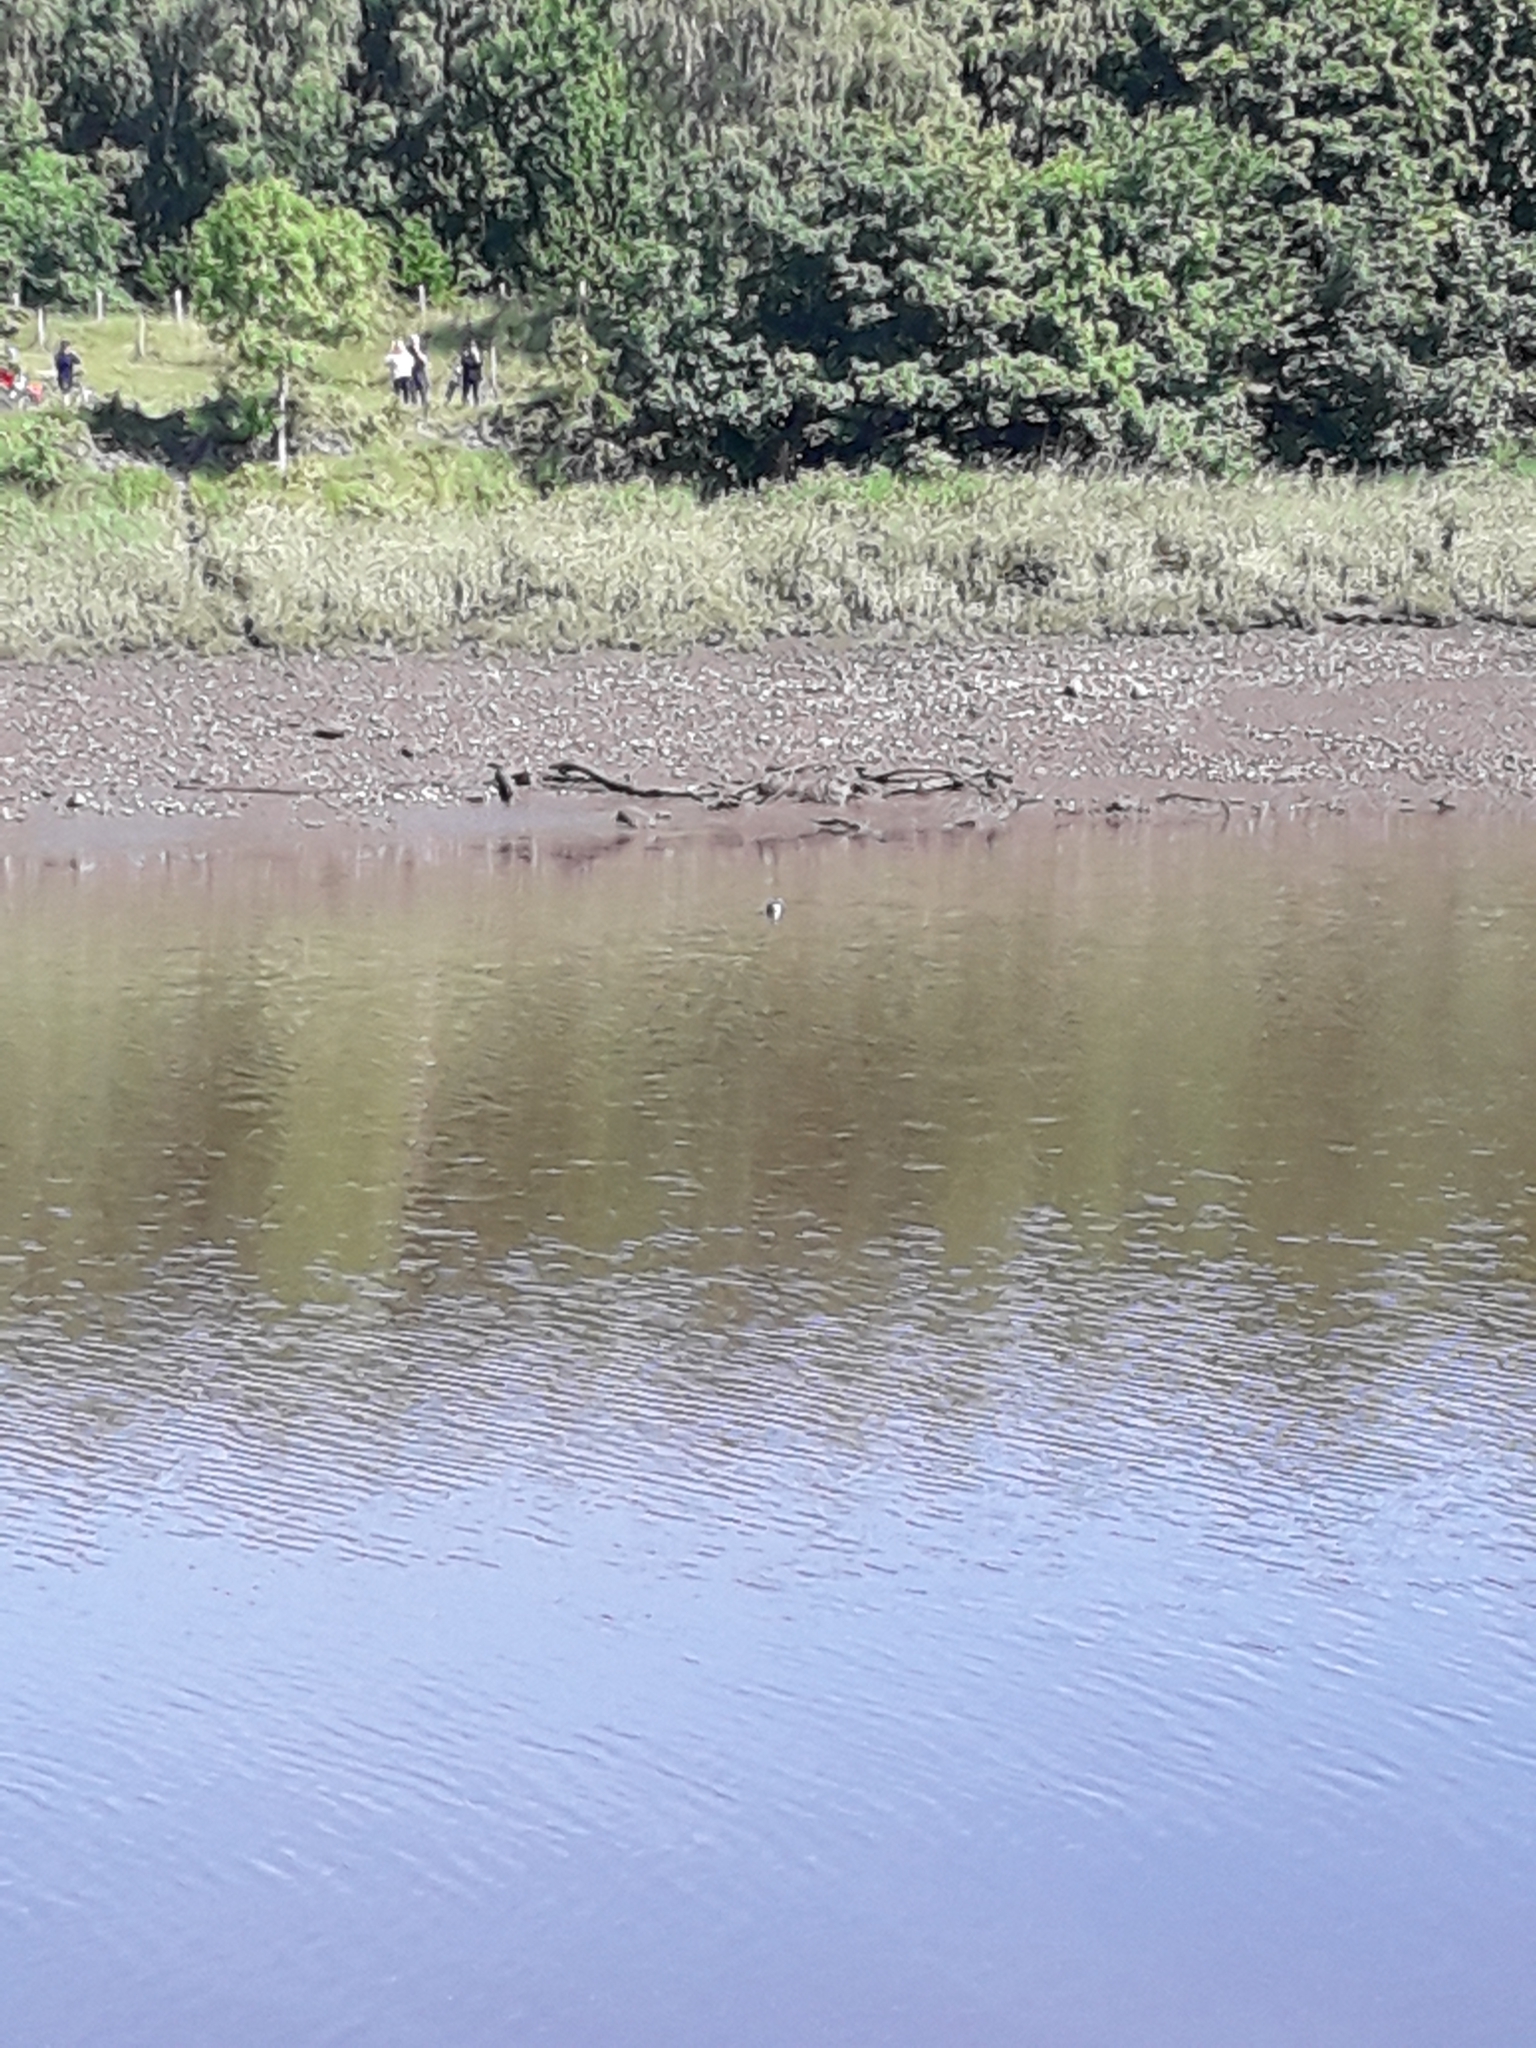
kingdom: Animalia
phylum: Chordata
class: Mammalia
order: Carnivora
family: Phocidae
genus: Halichoerus
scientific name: Halichoerus grypus
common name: Grey seal
